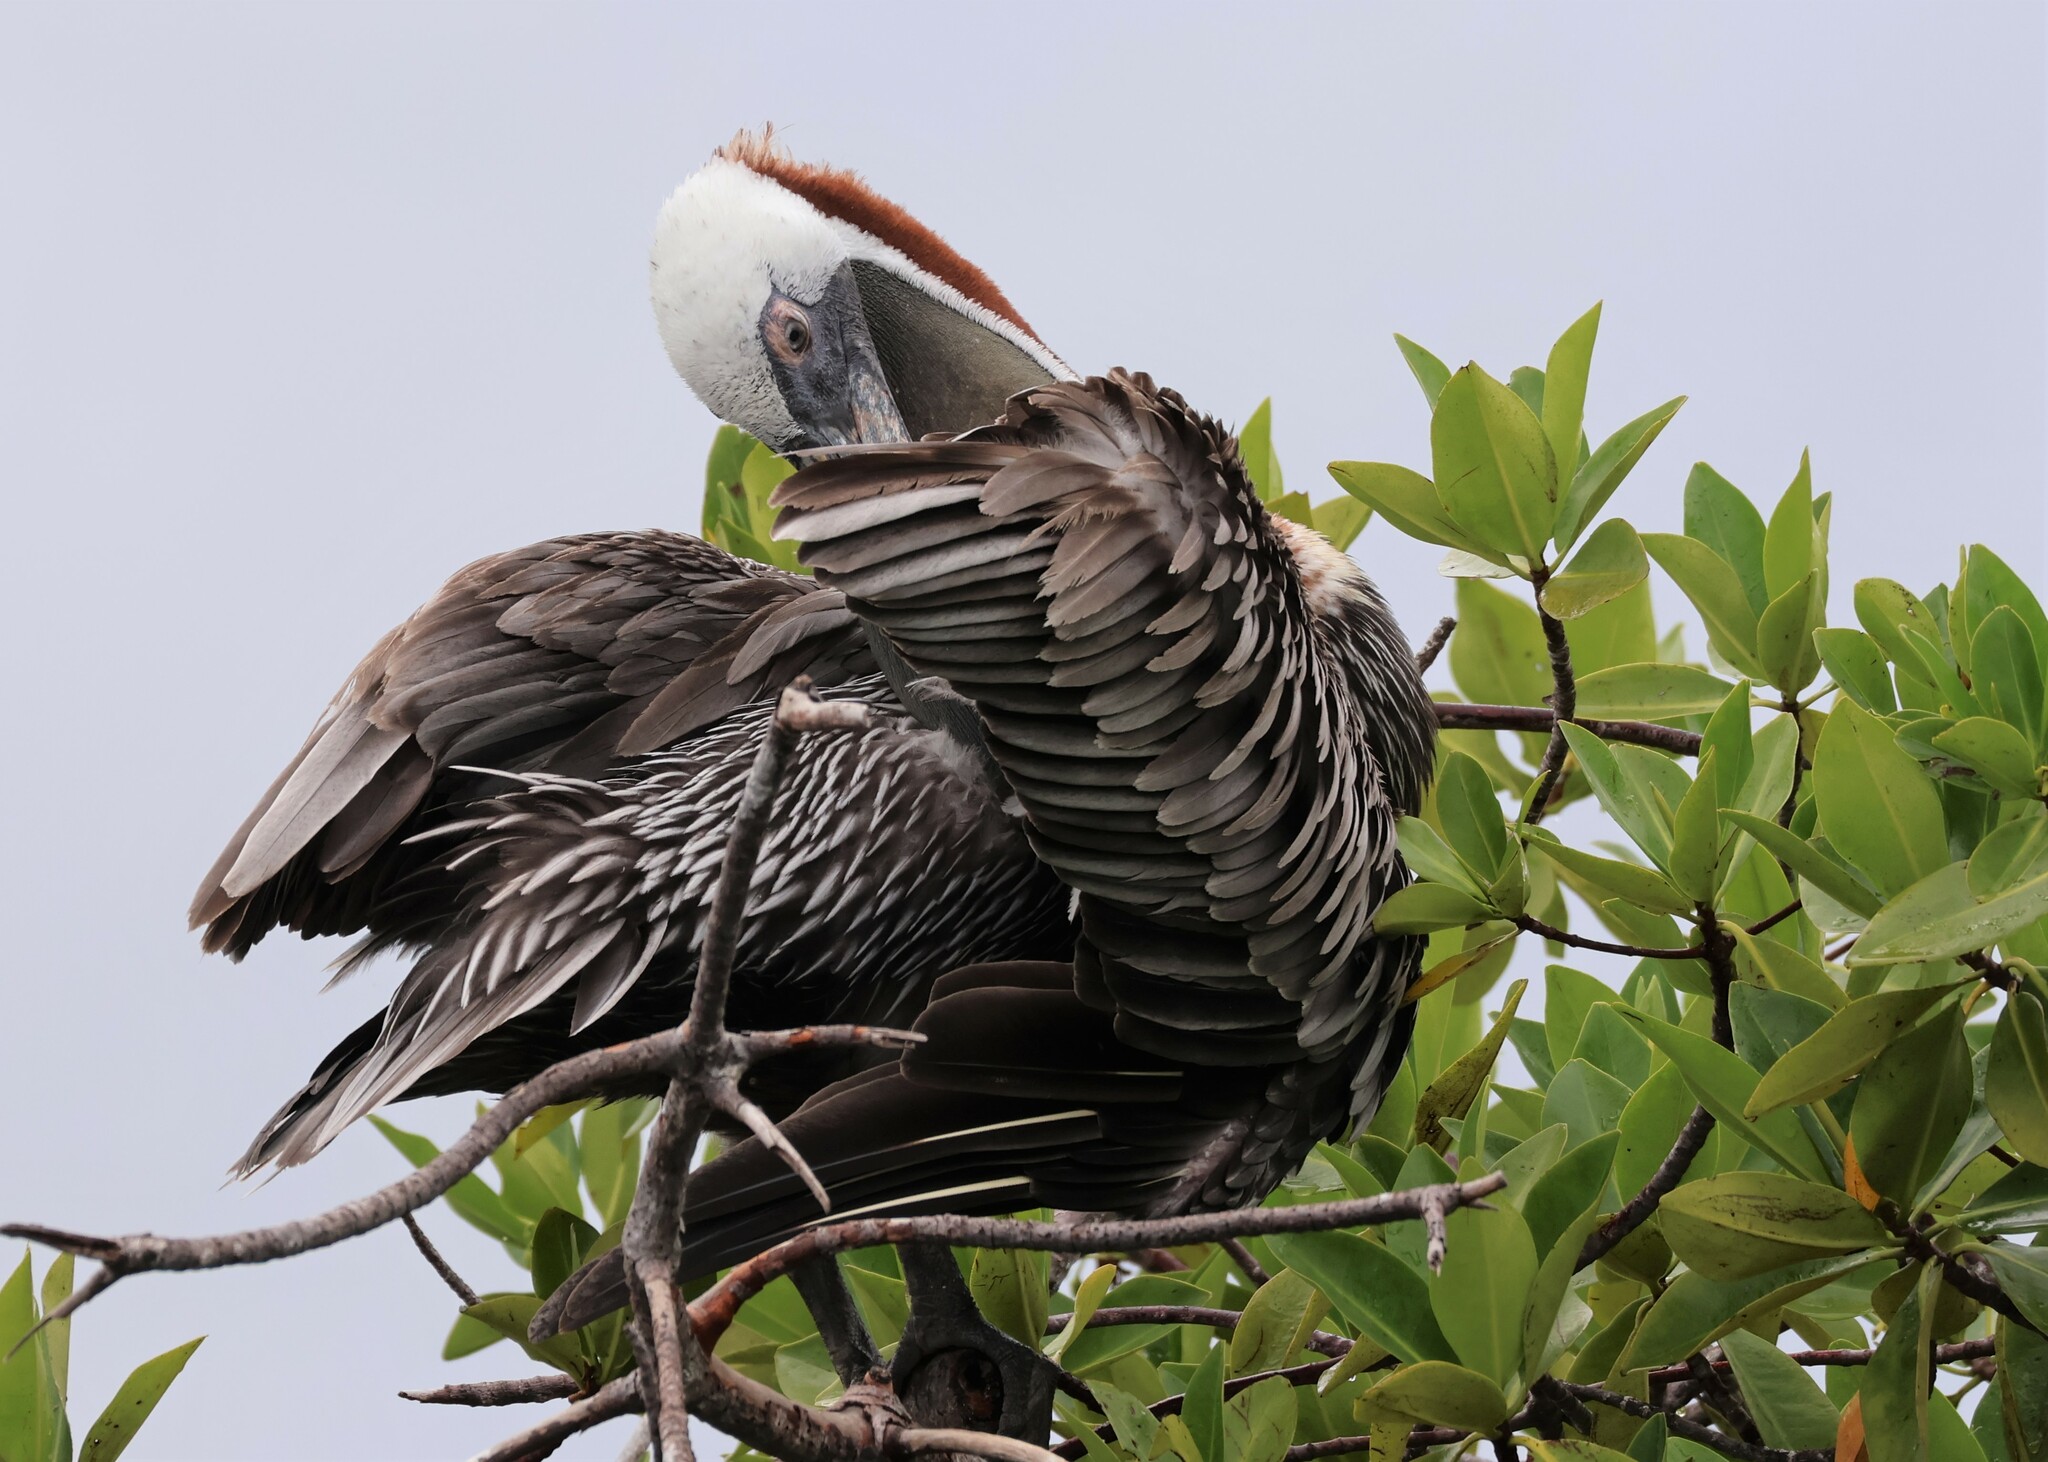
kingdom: Animalia
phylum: Chordata
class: Aves
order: Pelecaniformes
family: Pelecanidae
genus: Pelecanus
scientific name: Pelecanus occidentalis
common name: Brown pelican
